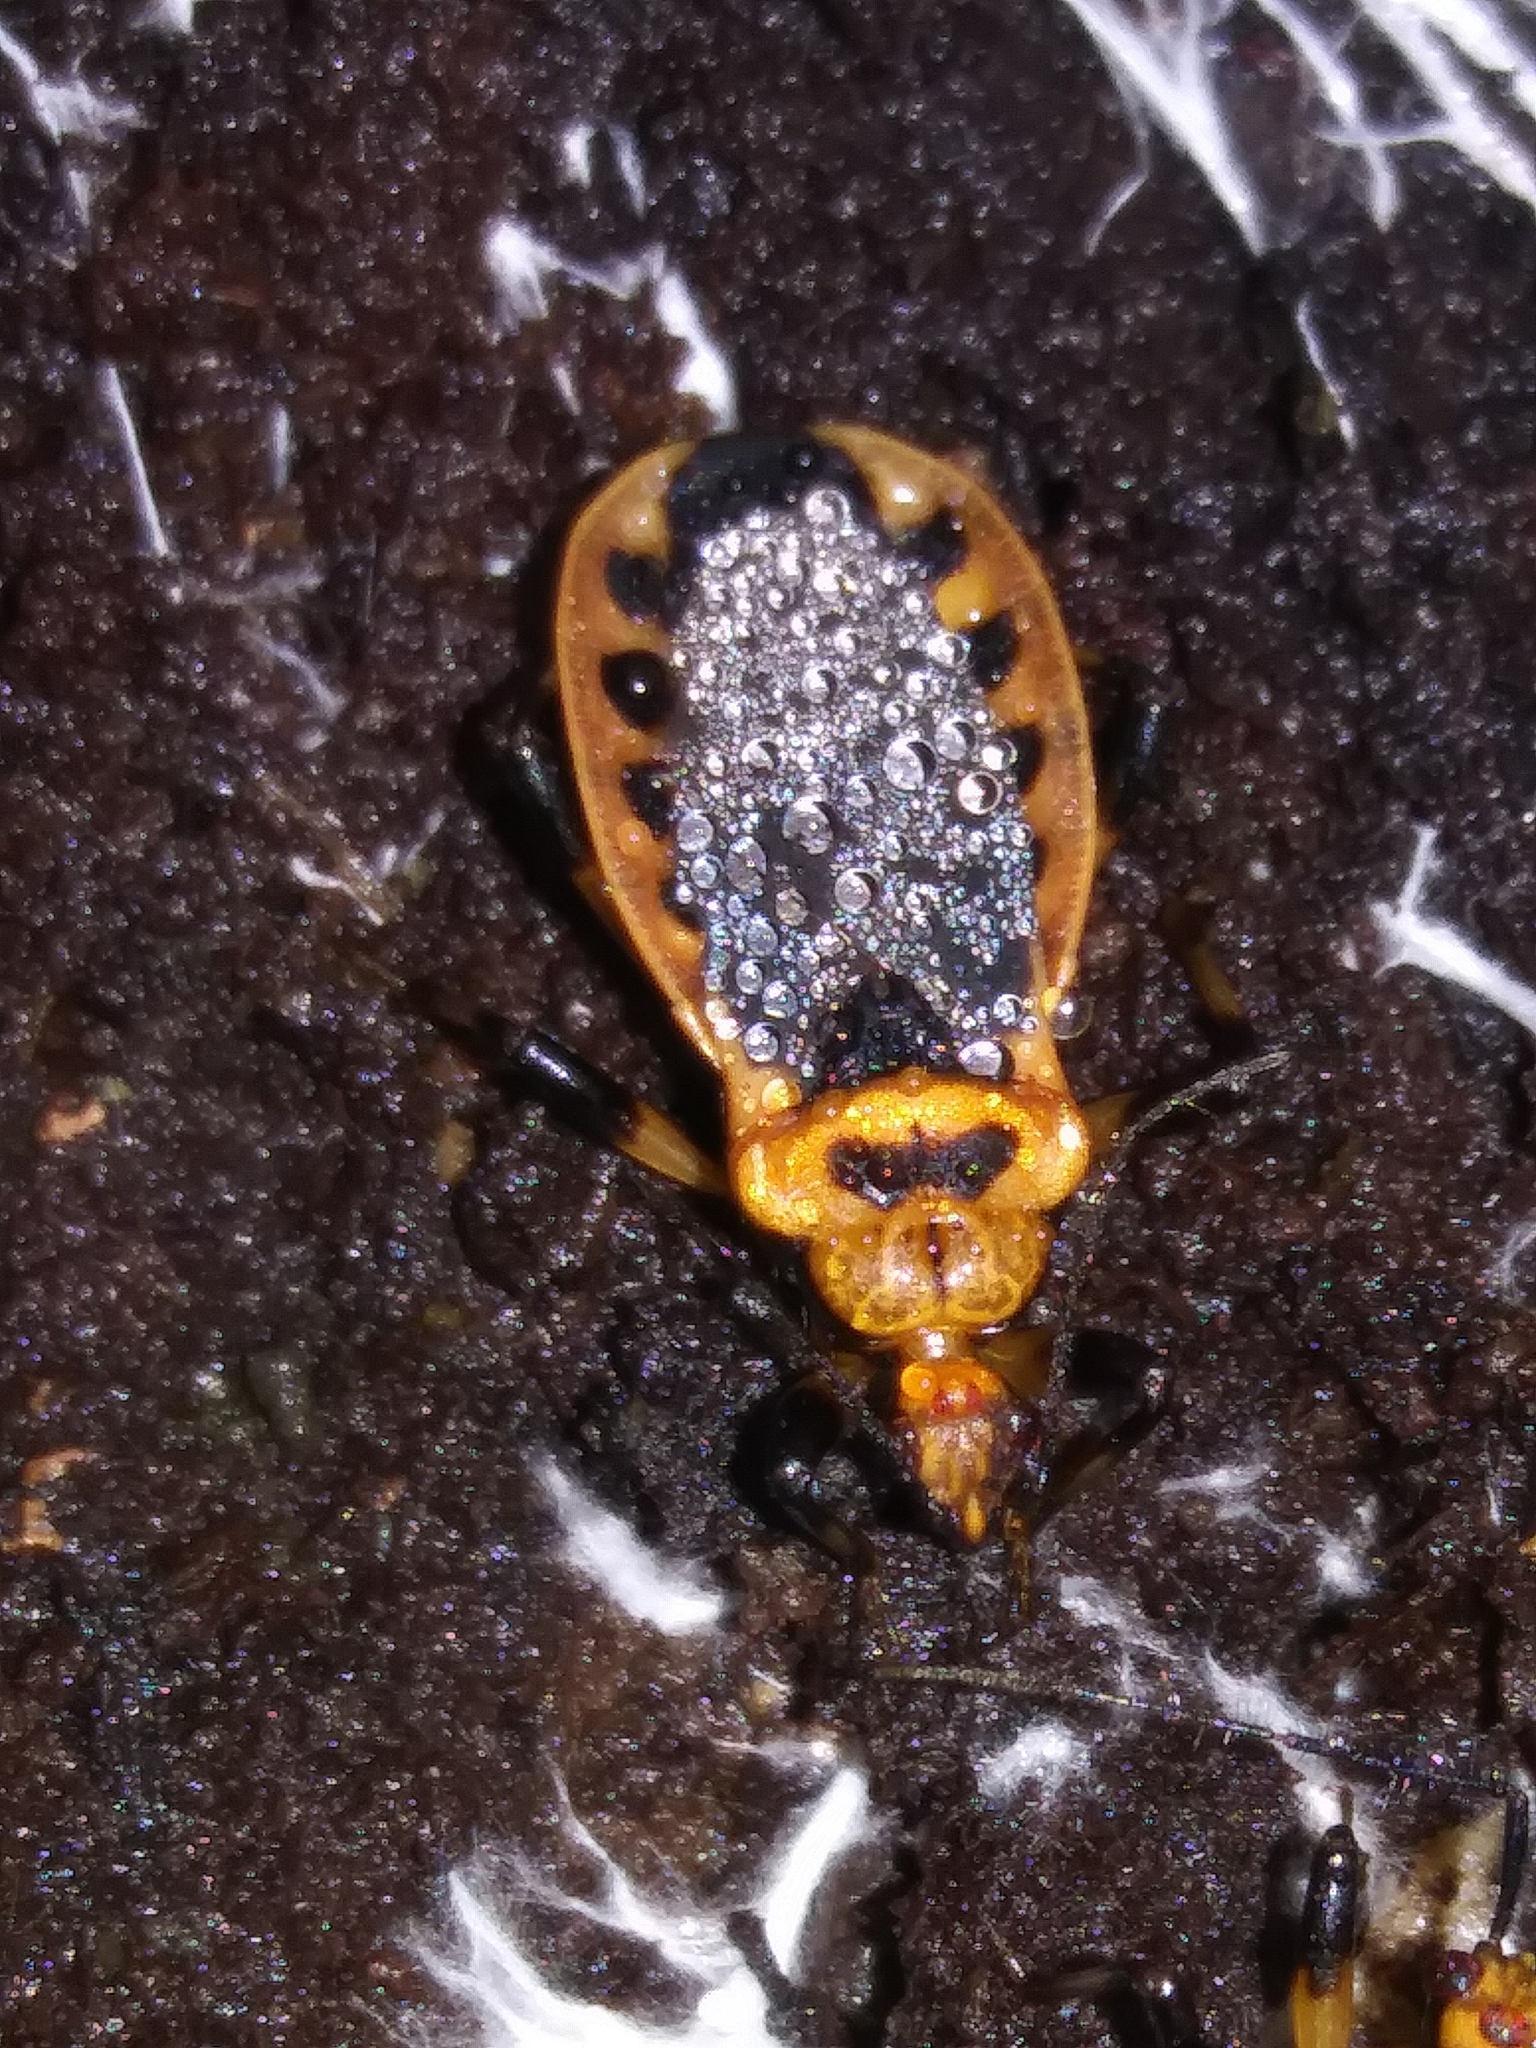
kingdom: Animalia
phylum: Arthropoda
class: Insecta
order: Hemiptera
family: Reduviidae
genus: Rhiginia
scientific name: Rhiginia cruciata
